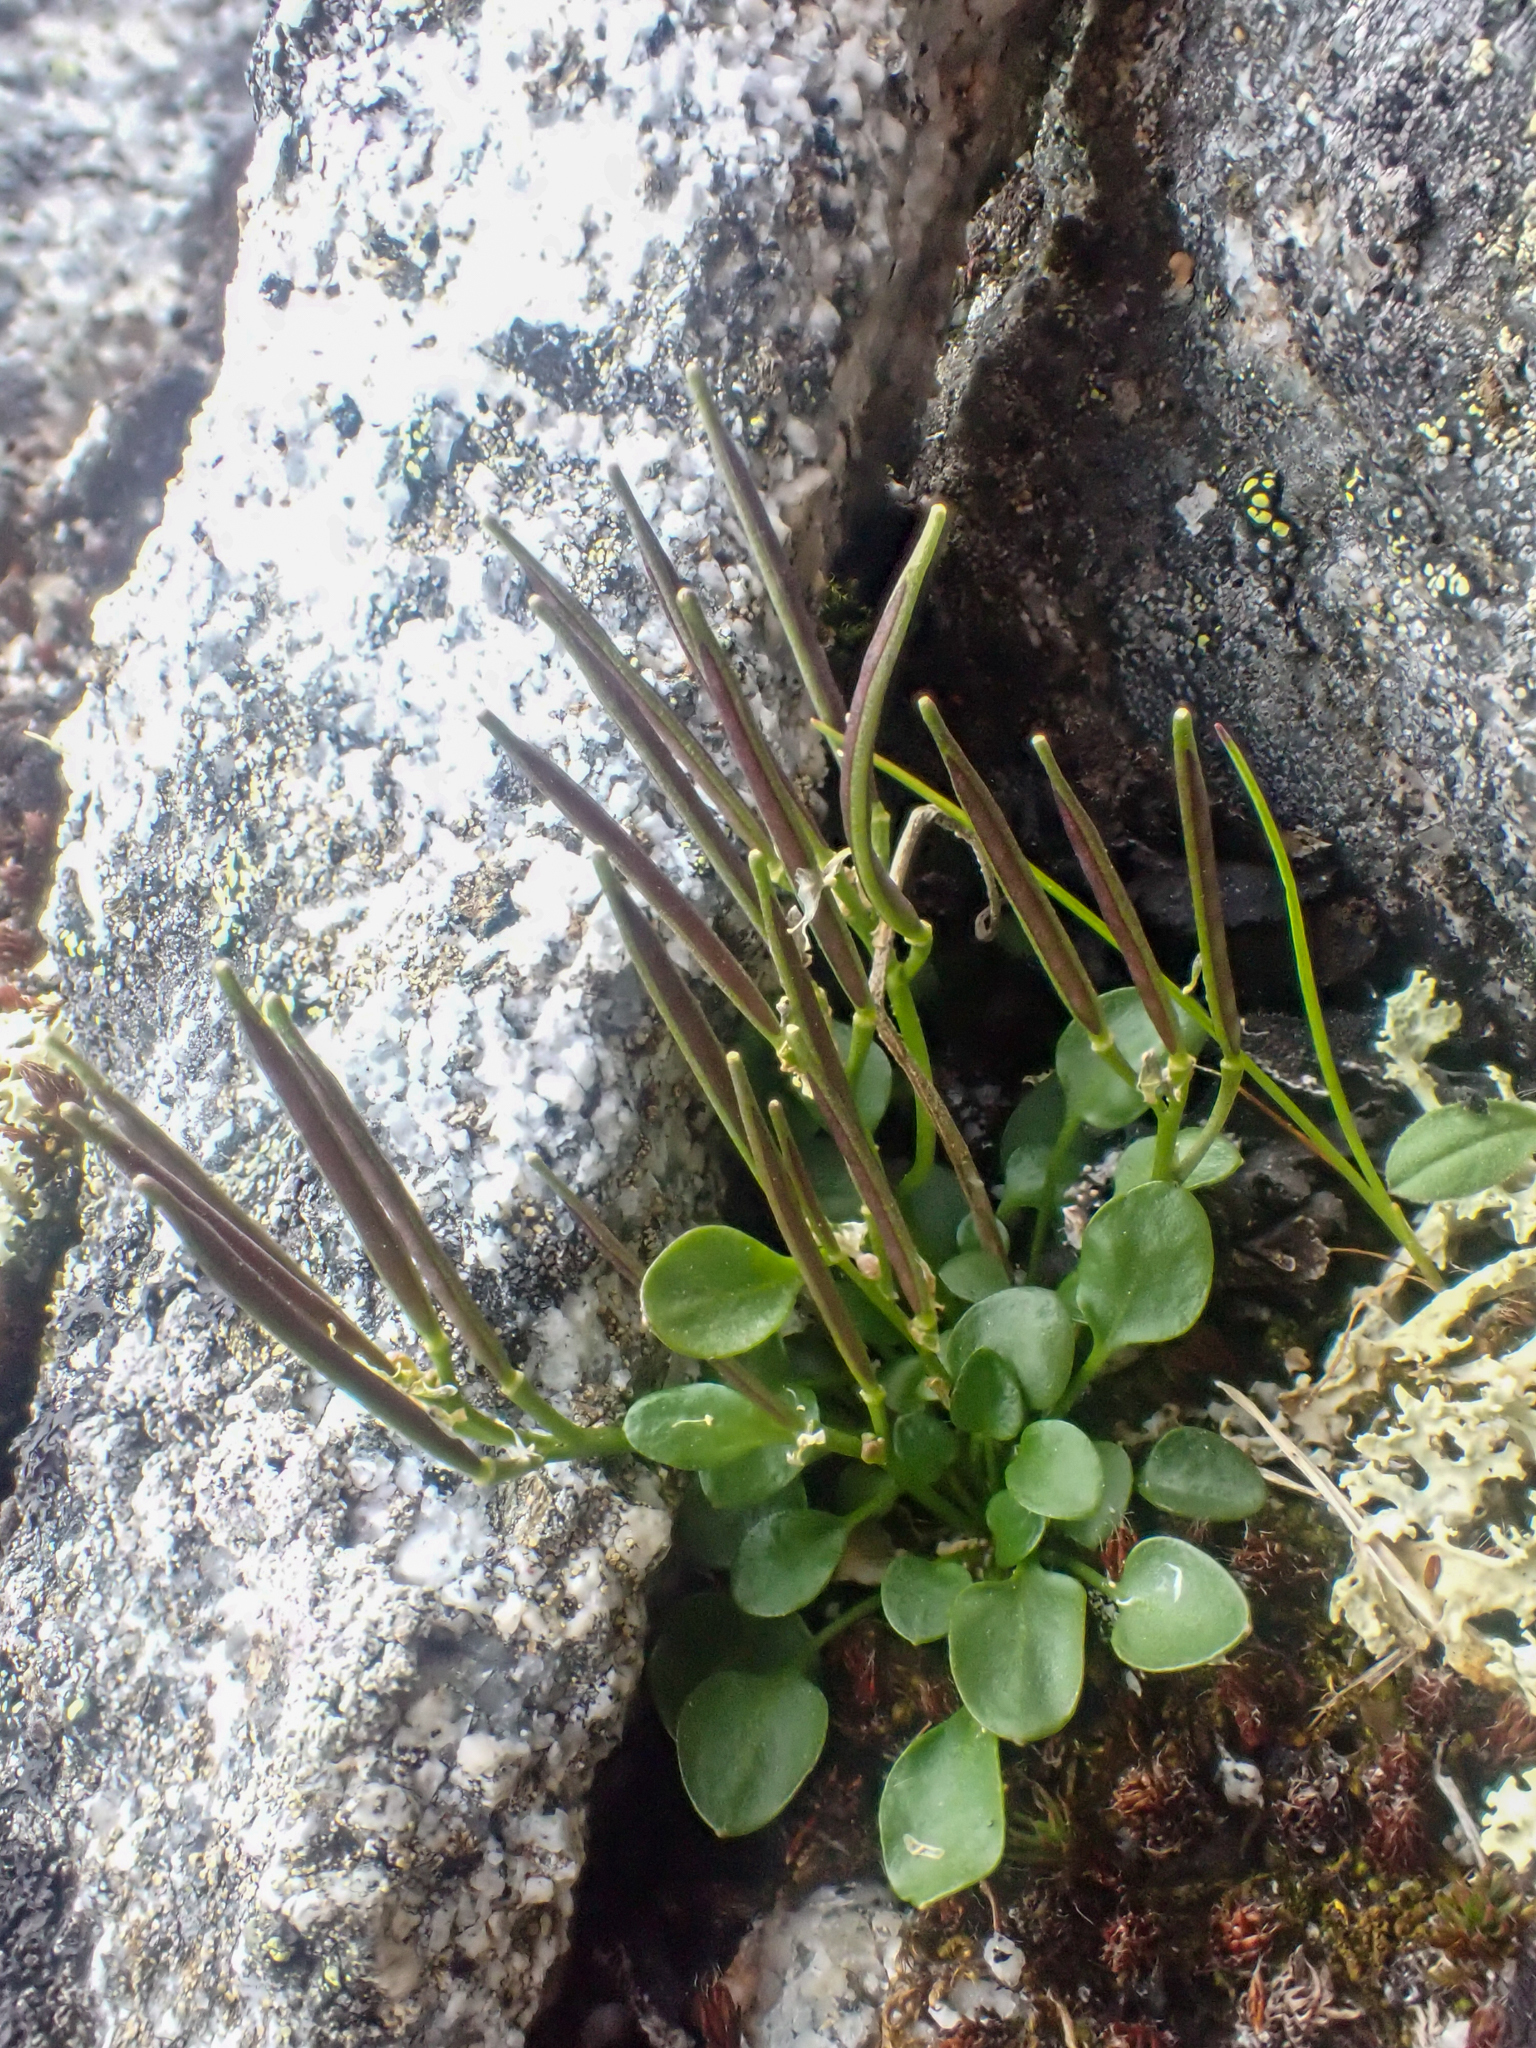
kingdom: Plantae
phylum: Tracheophyta
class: Magnoliopsida
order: Brassicales
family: Brassicaceae
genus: Cardamine
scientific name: Cardamine bellidifolia
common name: Alpine bittercress
